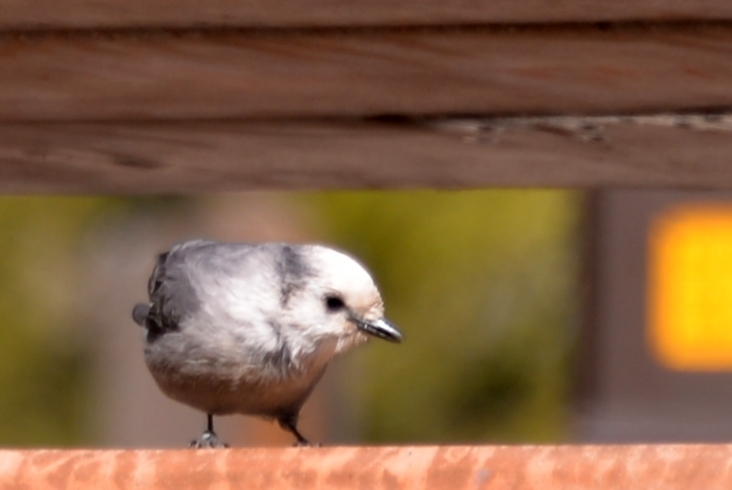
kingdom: Animalia
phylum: Chordata
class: Aves
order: Passeriformes
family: Corvidae
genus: Perisoreus
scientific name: Perisoreus canadensis
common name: Gray jay
